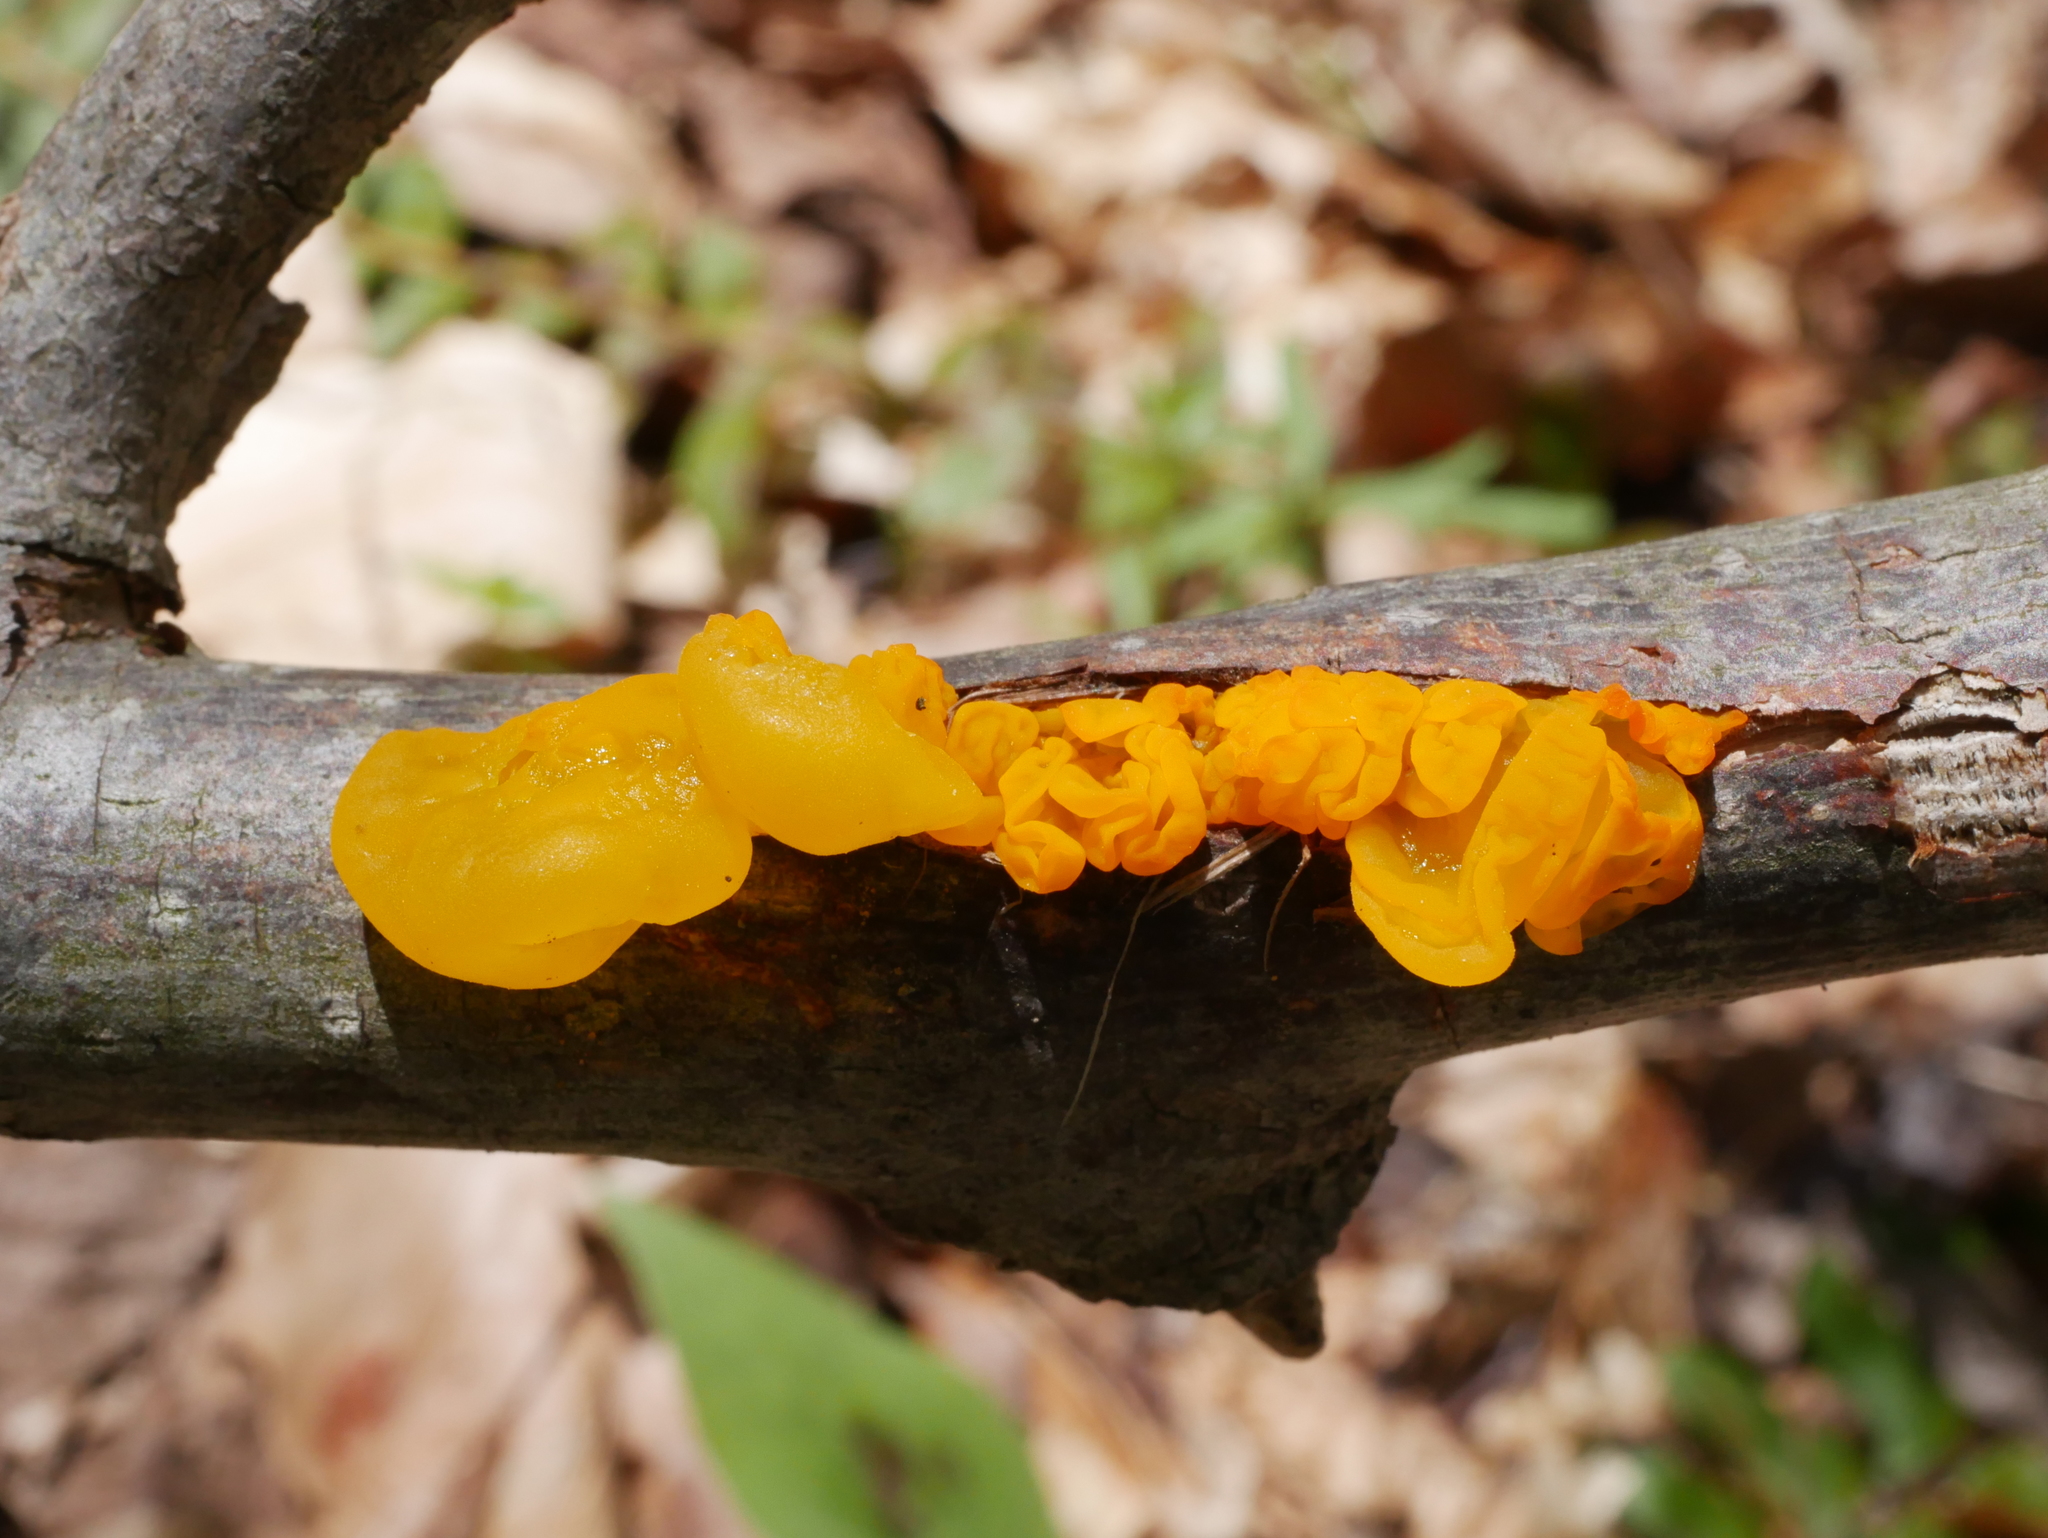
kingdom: Fungi
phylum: Basidiomycota
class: Tremellomycetes
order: Tremellales
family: Tremellaceae
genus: Tremella
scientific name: Tremella mesenterica
